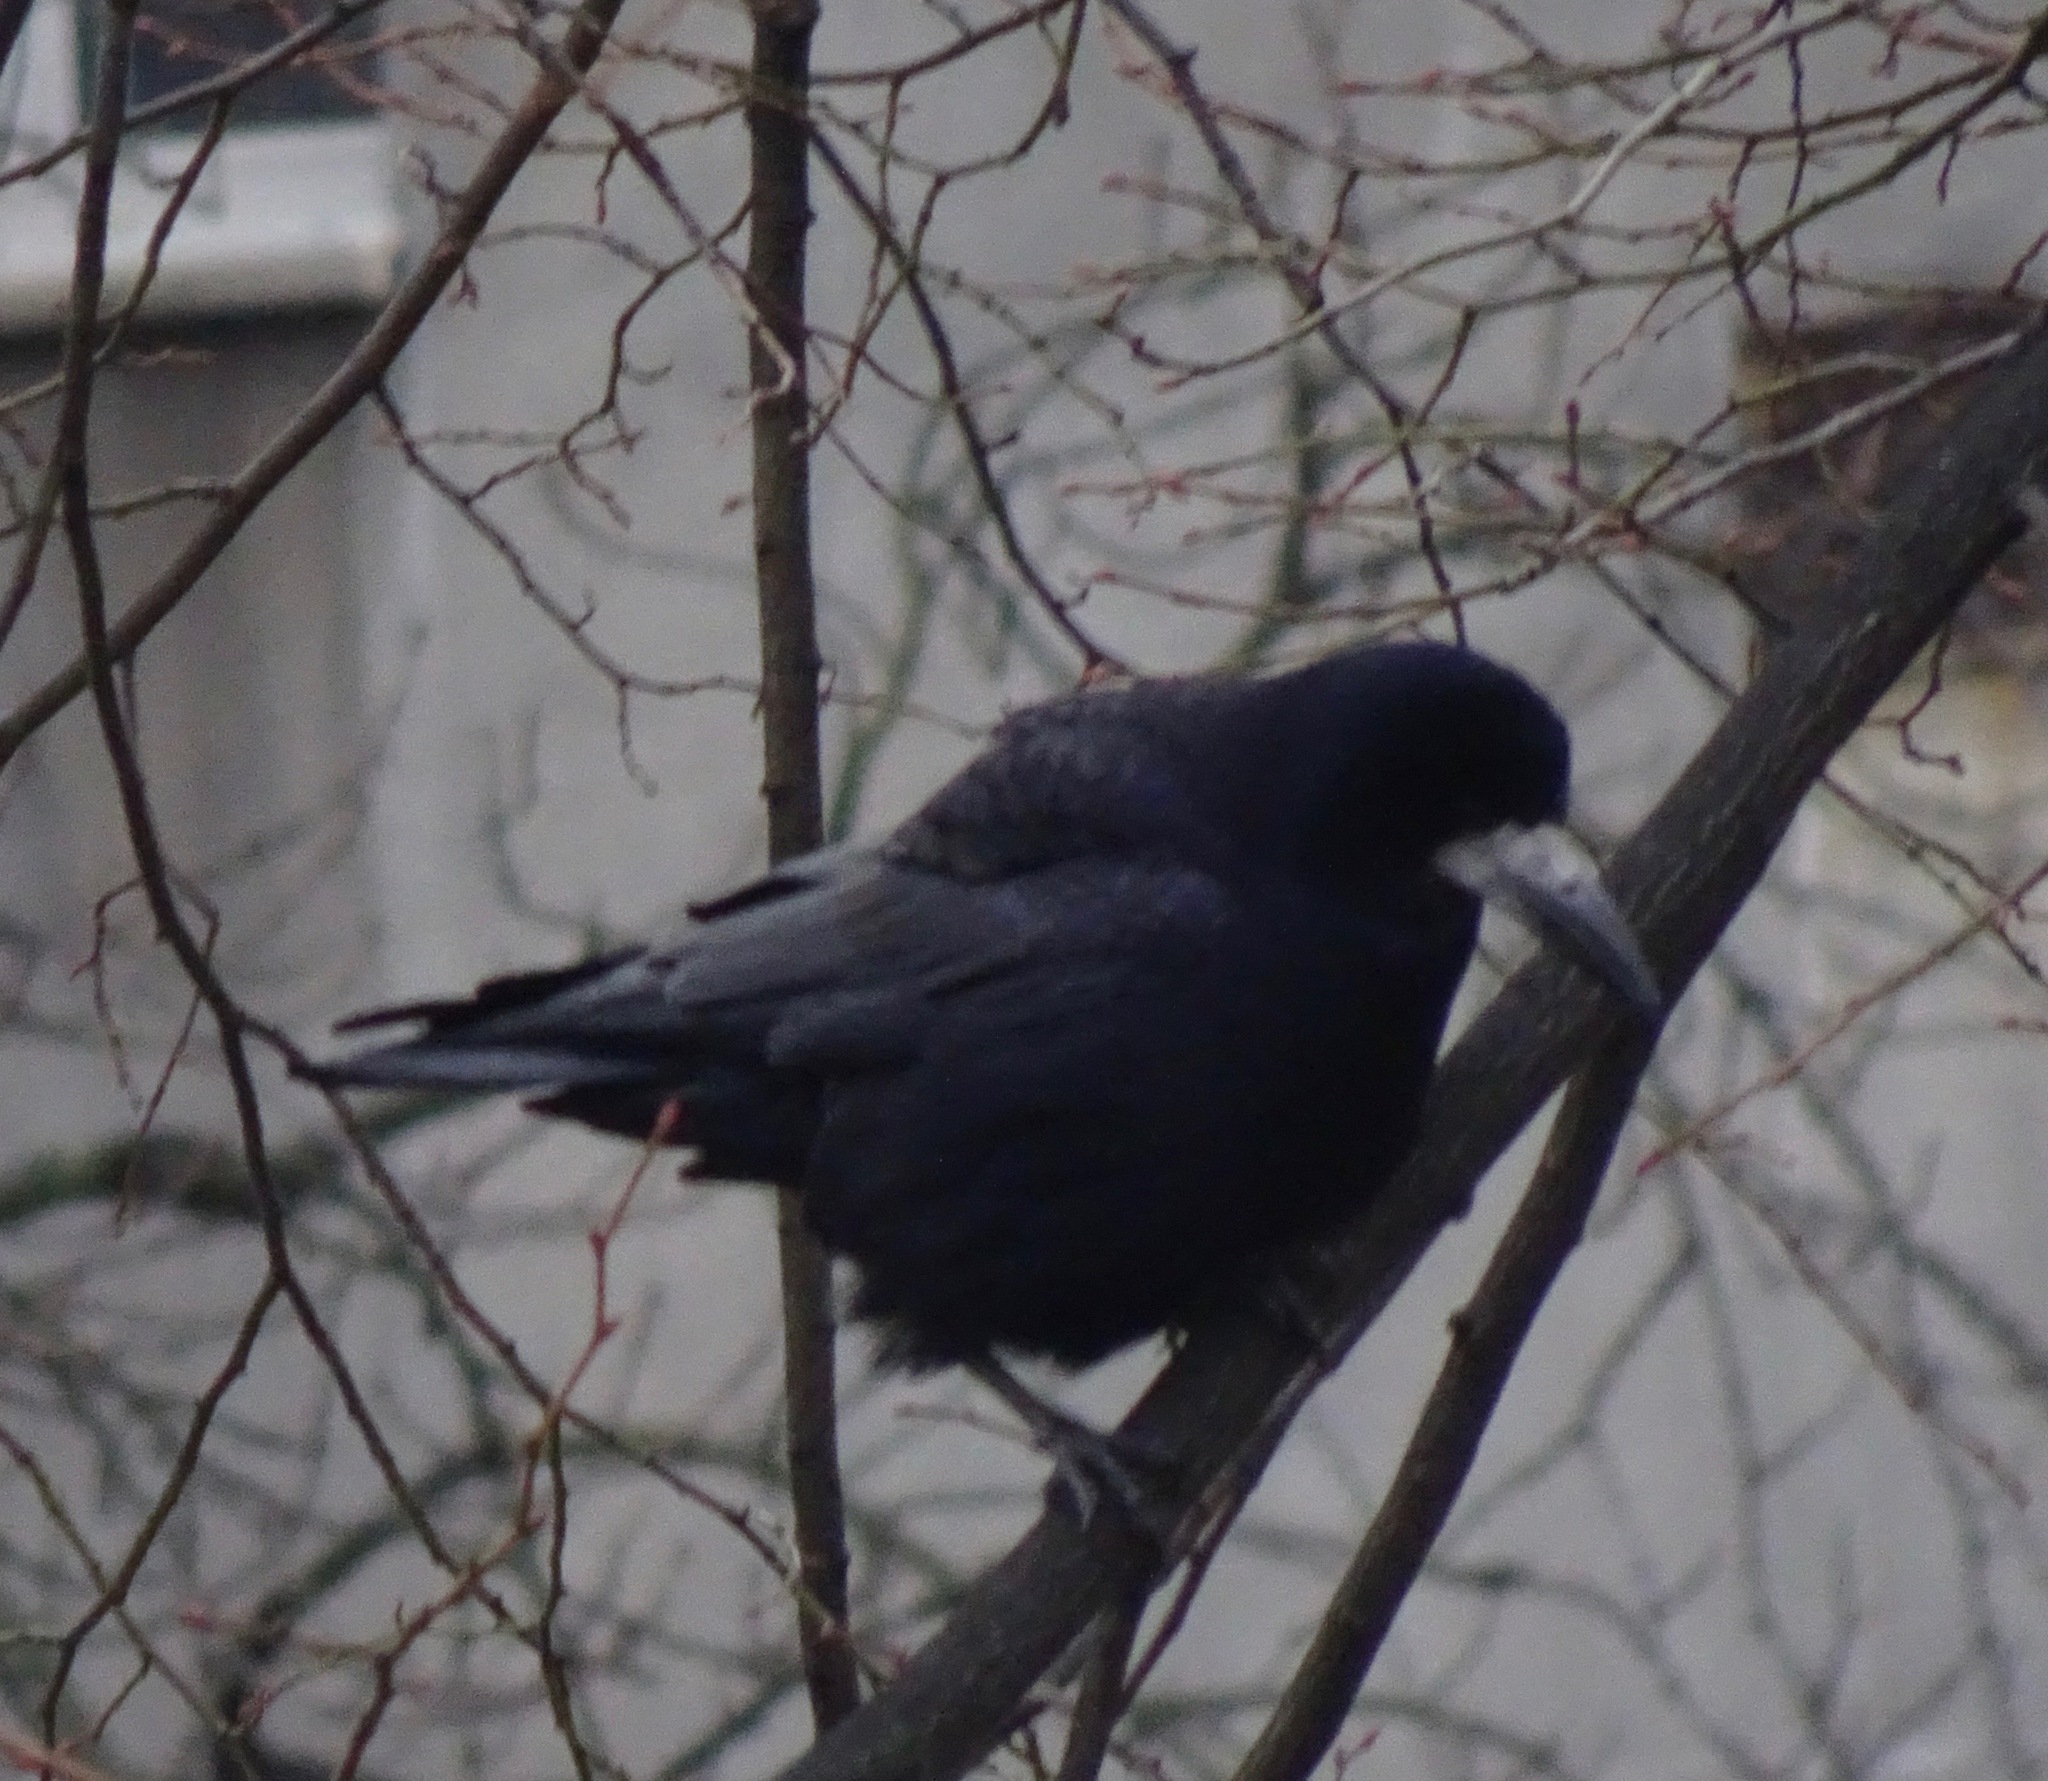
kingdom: Animalia
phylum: Chordata
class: Aves
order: Passeriformes
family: Corvidae
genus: Corvus
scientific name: Corvus frugilegus
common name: Rook
